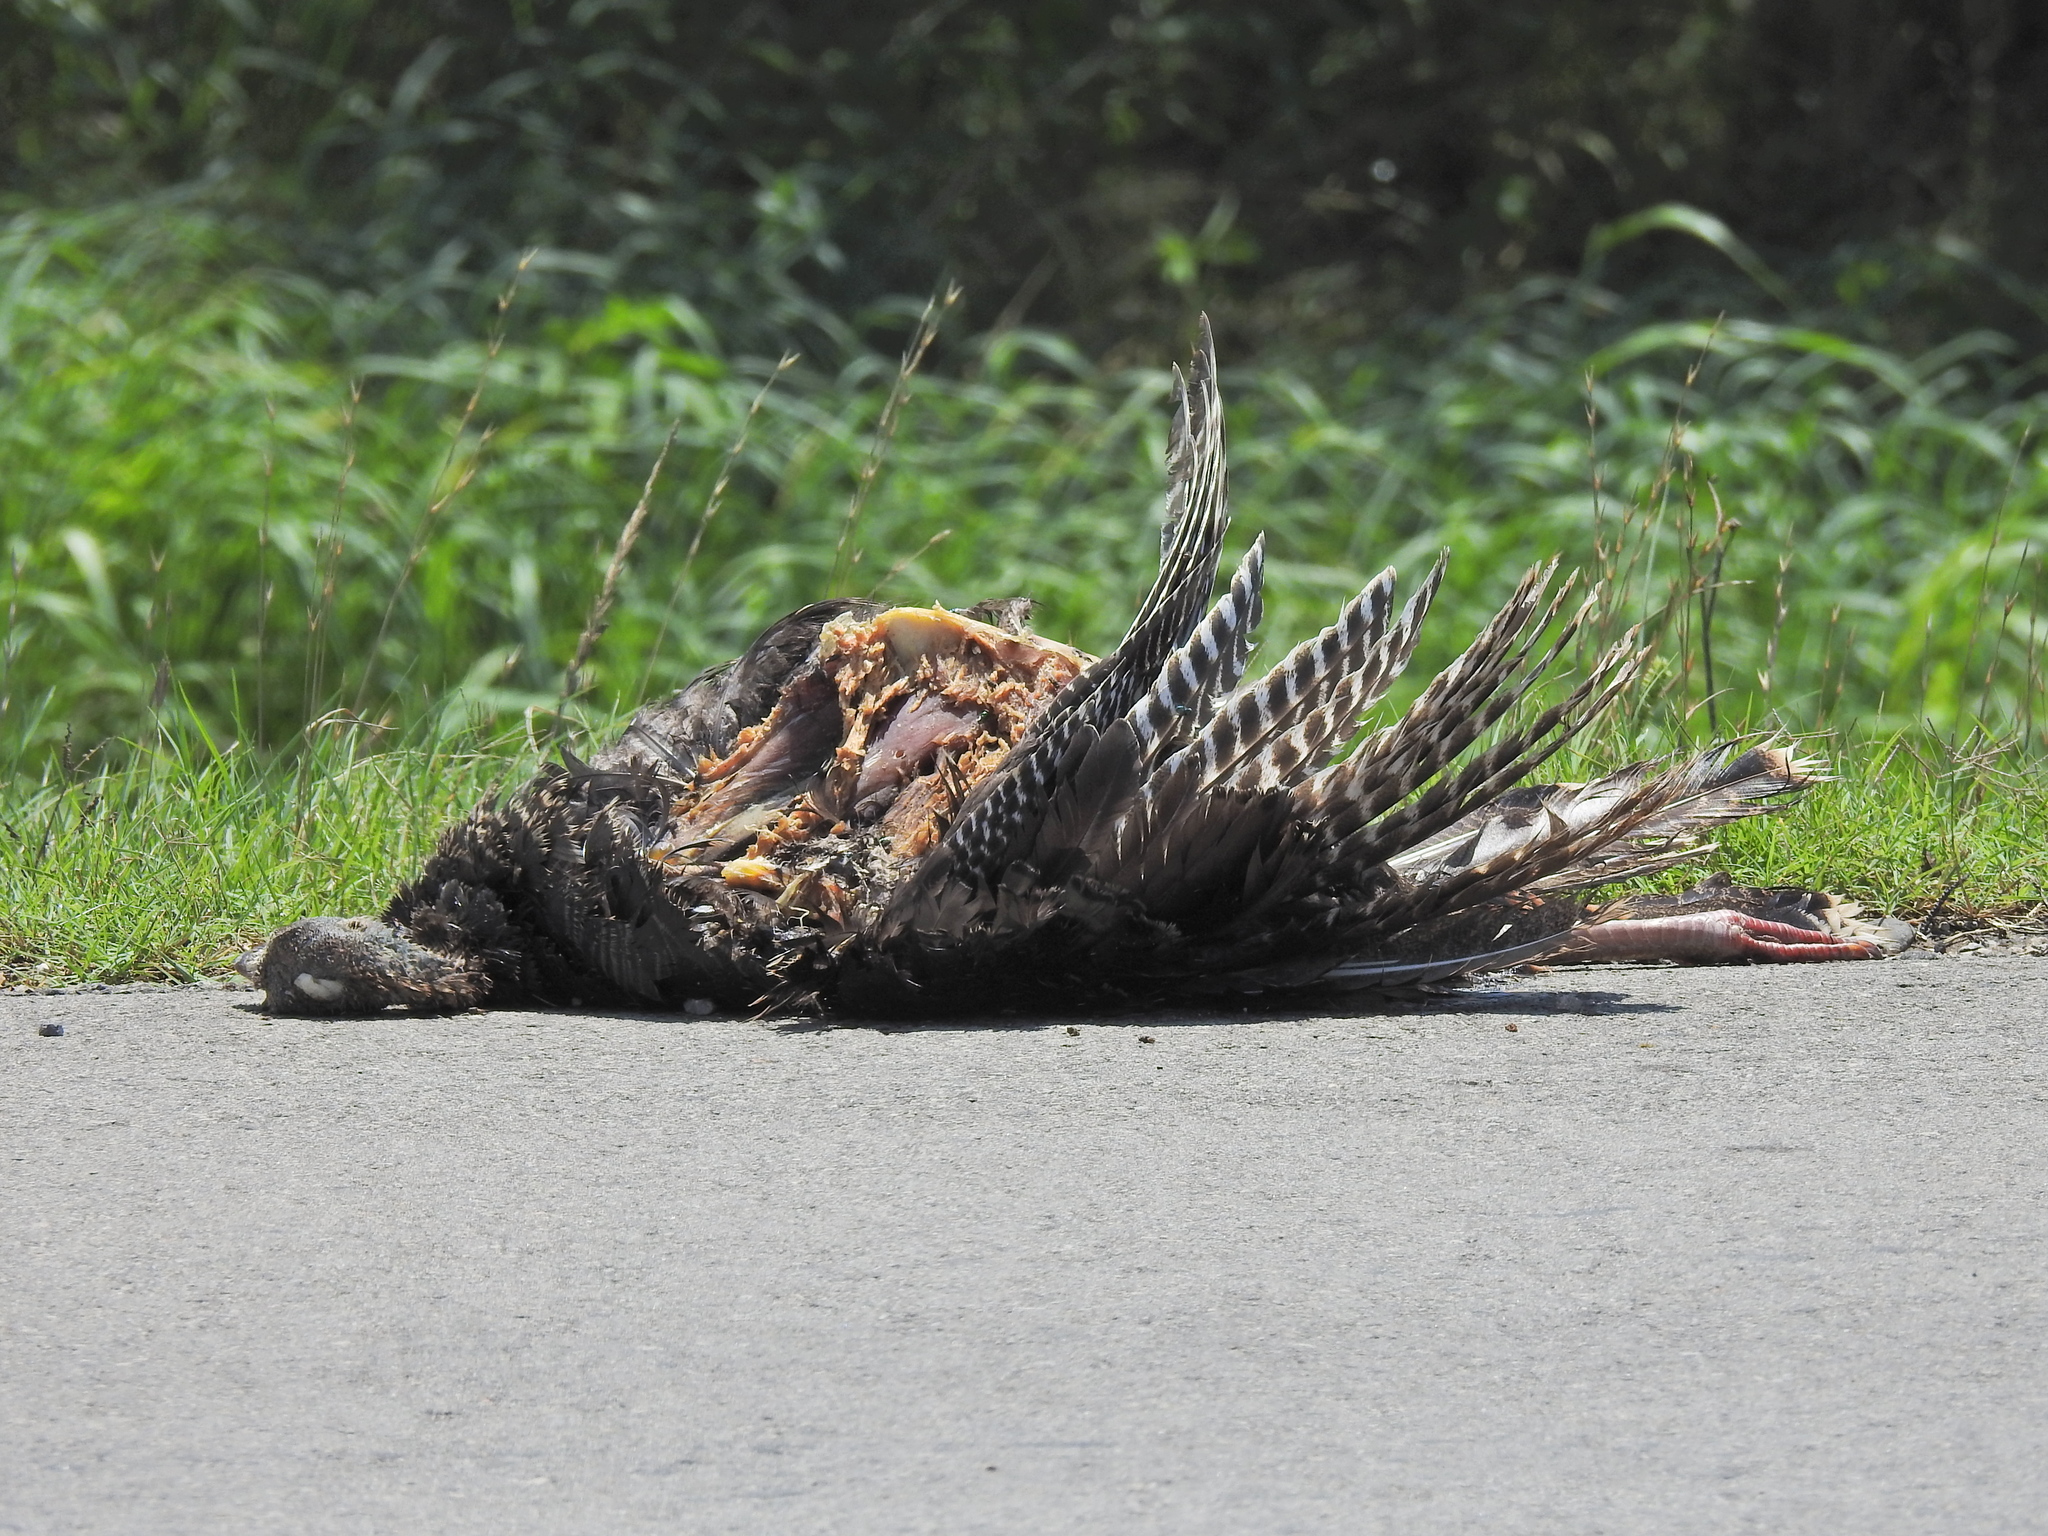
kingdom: Animalia
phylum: Chordata
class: Aves
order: Galliformes
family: Phasianidae
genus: Meleagris
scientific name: Meleagris gallopavo
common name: Wild turkey
